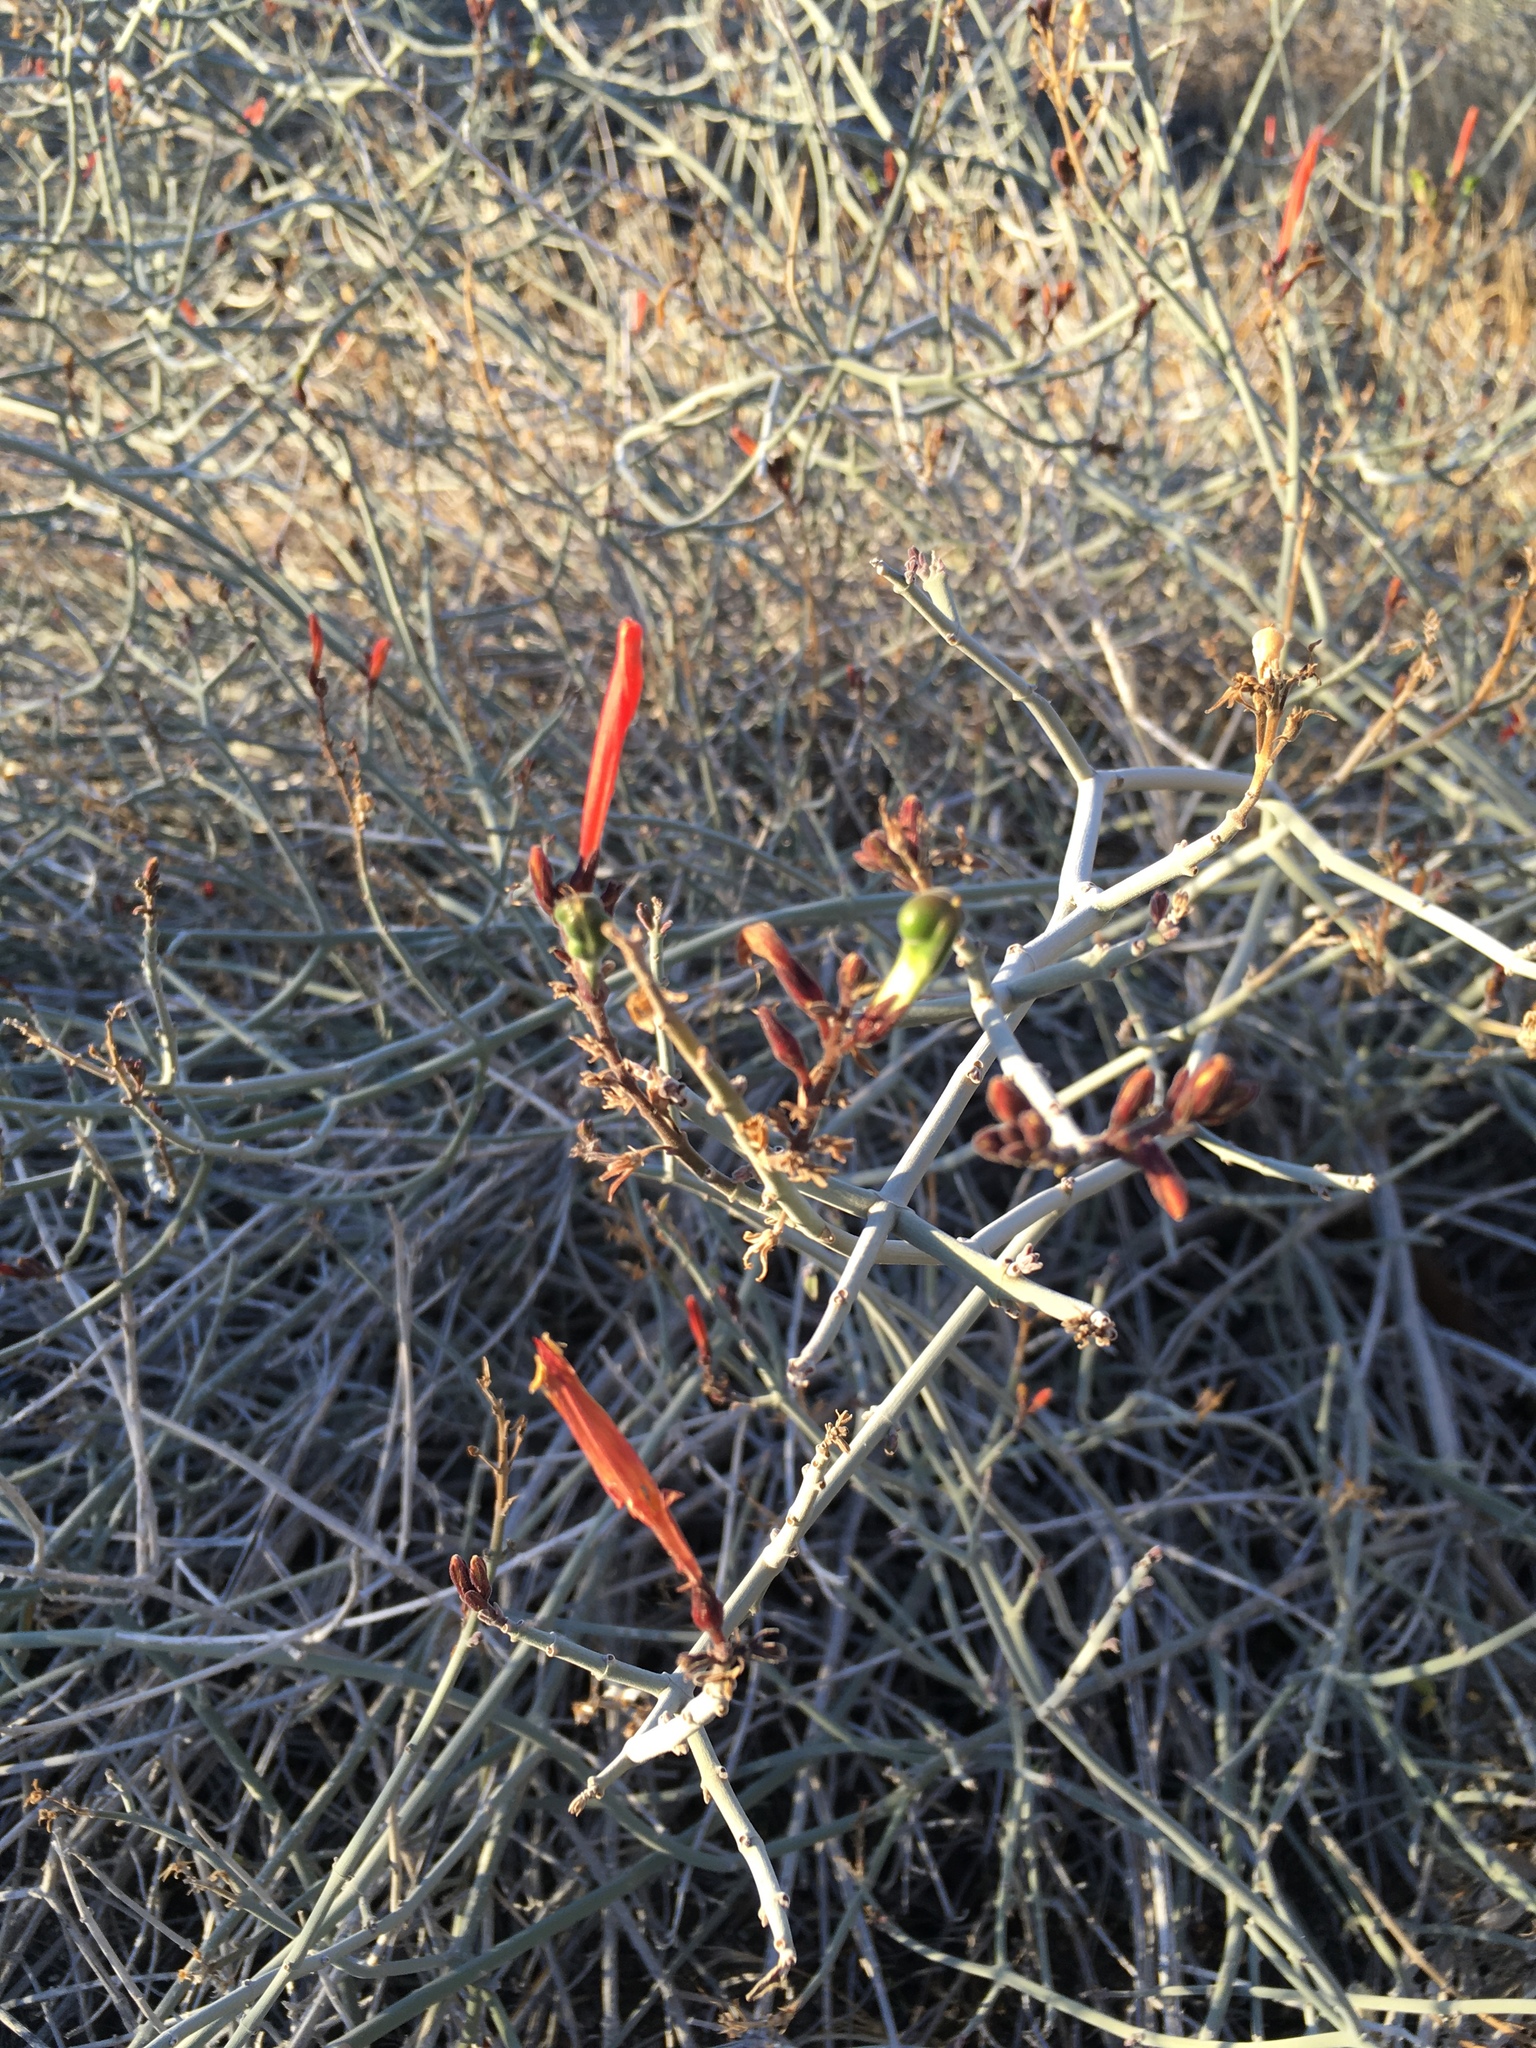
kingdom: Plantae
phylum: Tracheophyta
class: Magnoliopsida
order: Lamiales
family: Acanthaceae
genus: Justicia
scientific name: Justicia californica
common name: Chuparosa-honeysuckle
